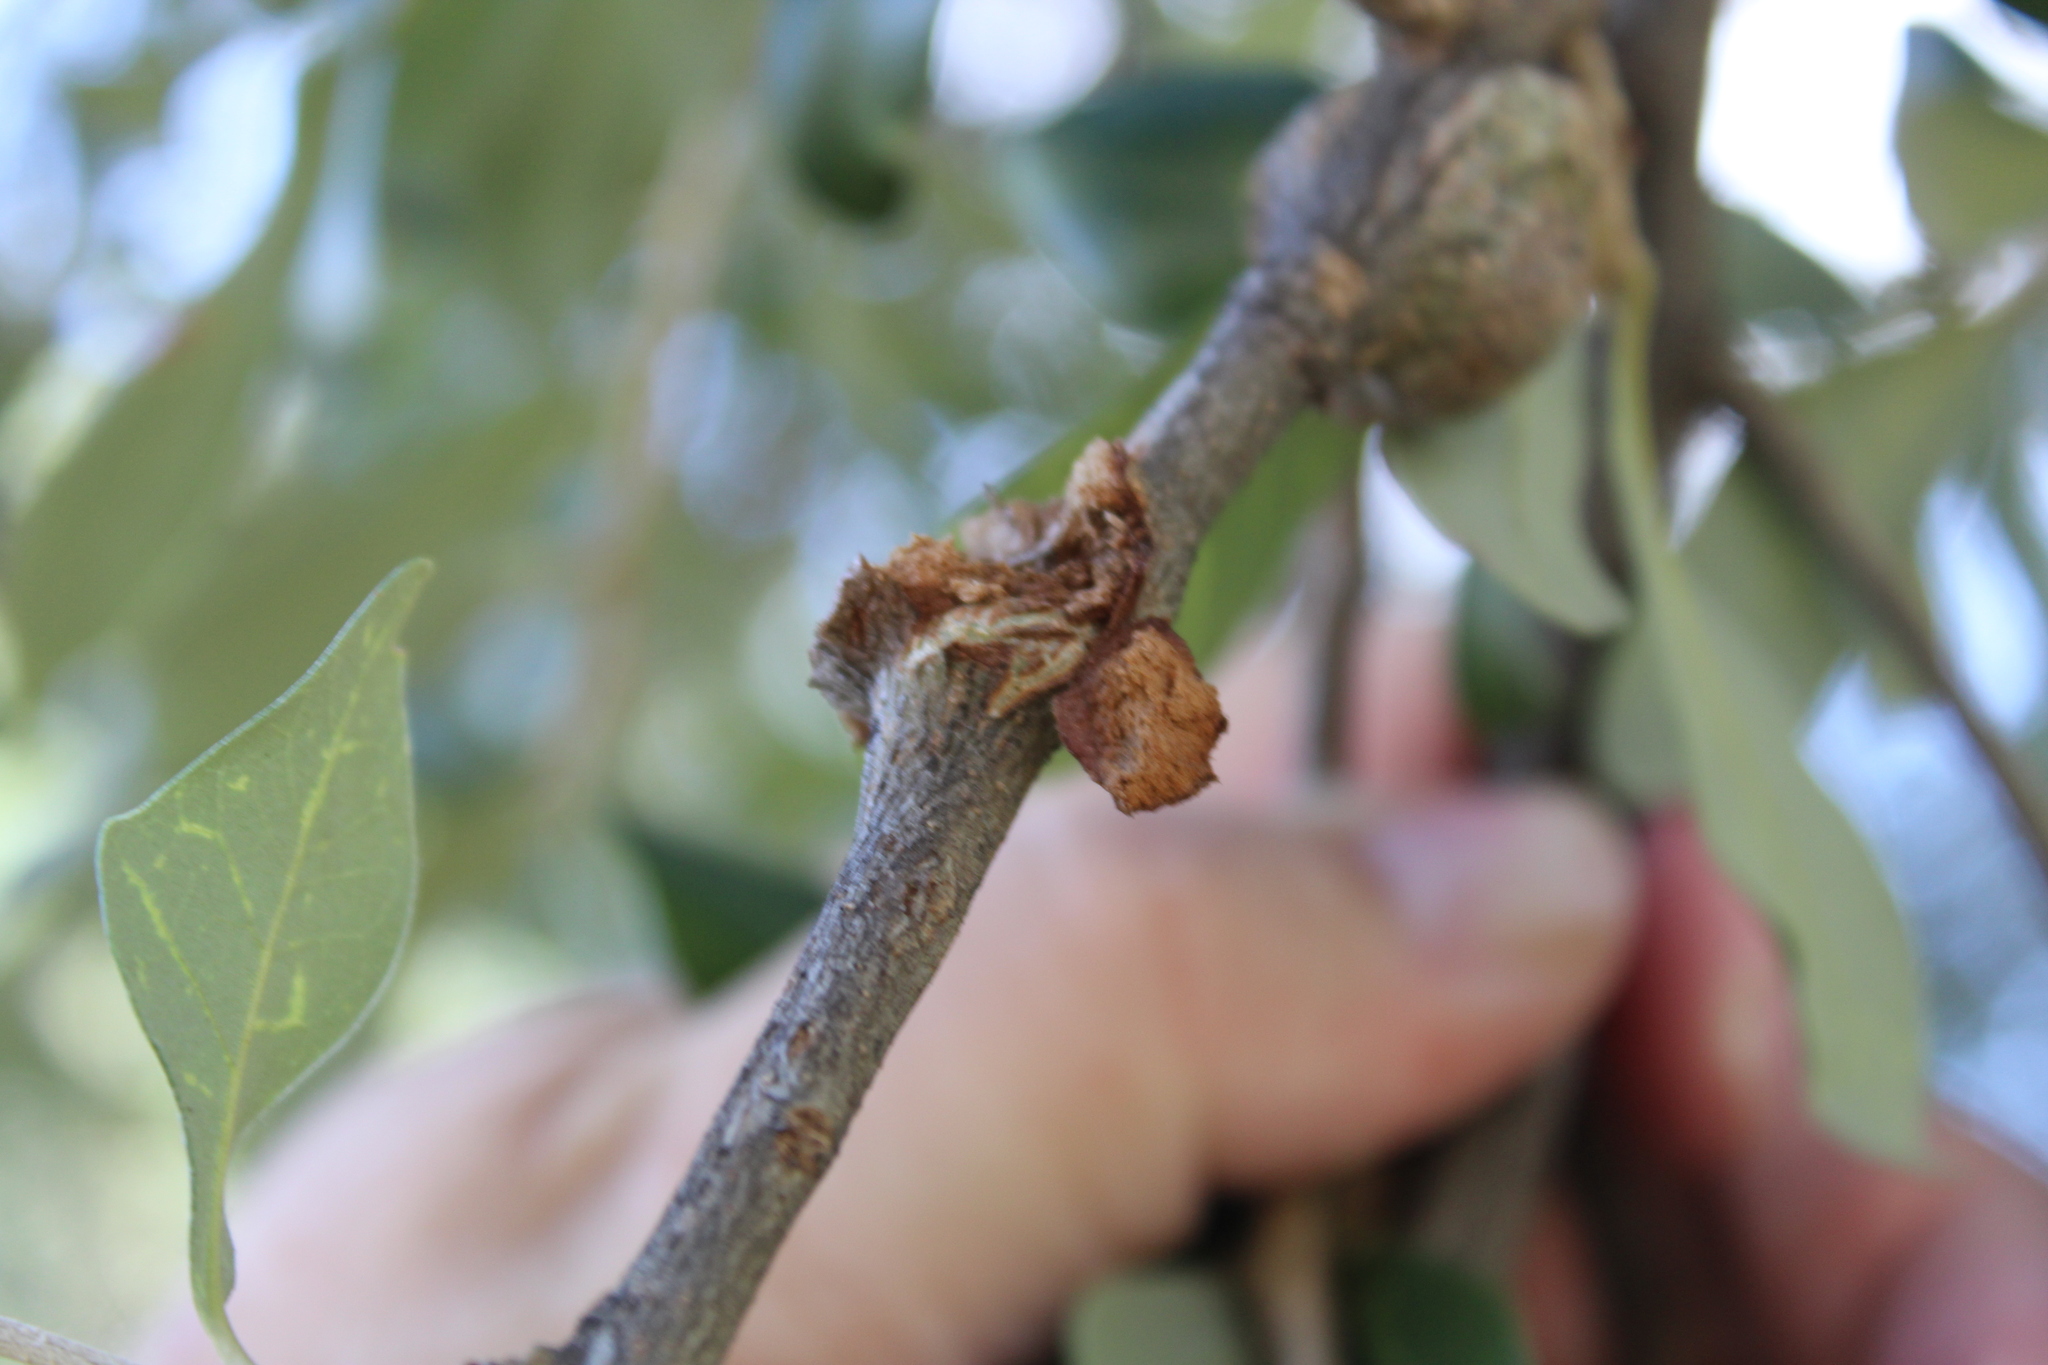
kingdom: Animalia
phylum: Arthropoda
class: Insecta
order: Hymenoptera
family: Cynipidae
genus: Callirhytis
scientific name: Callirhytis
